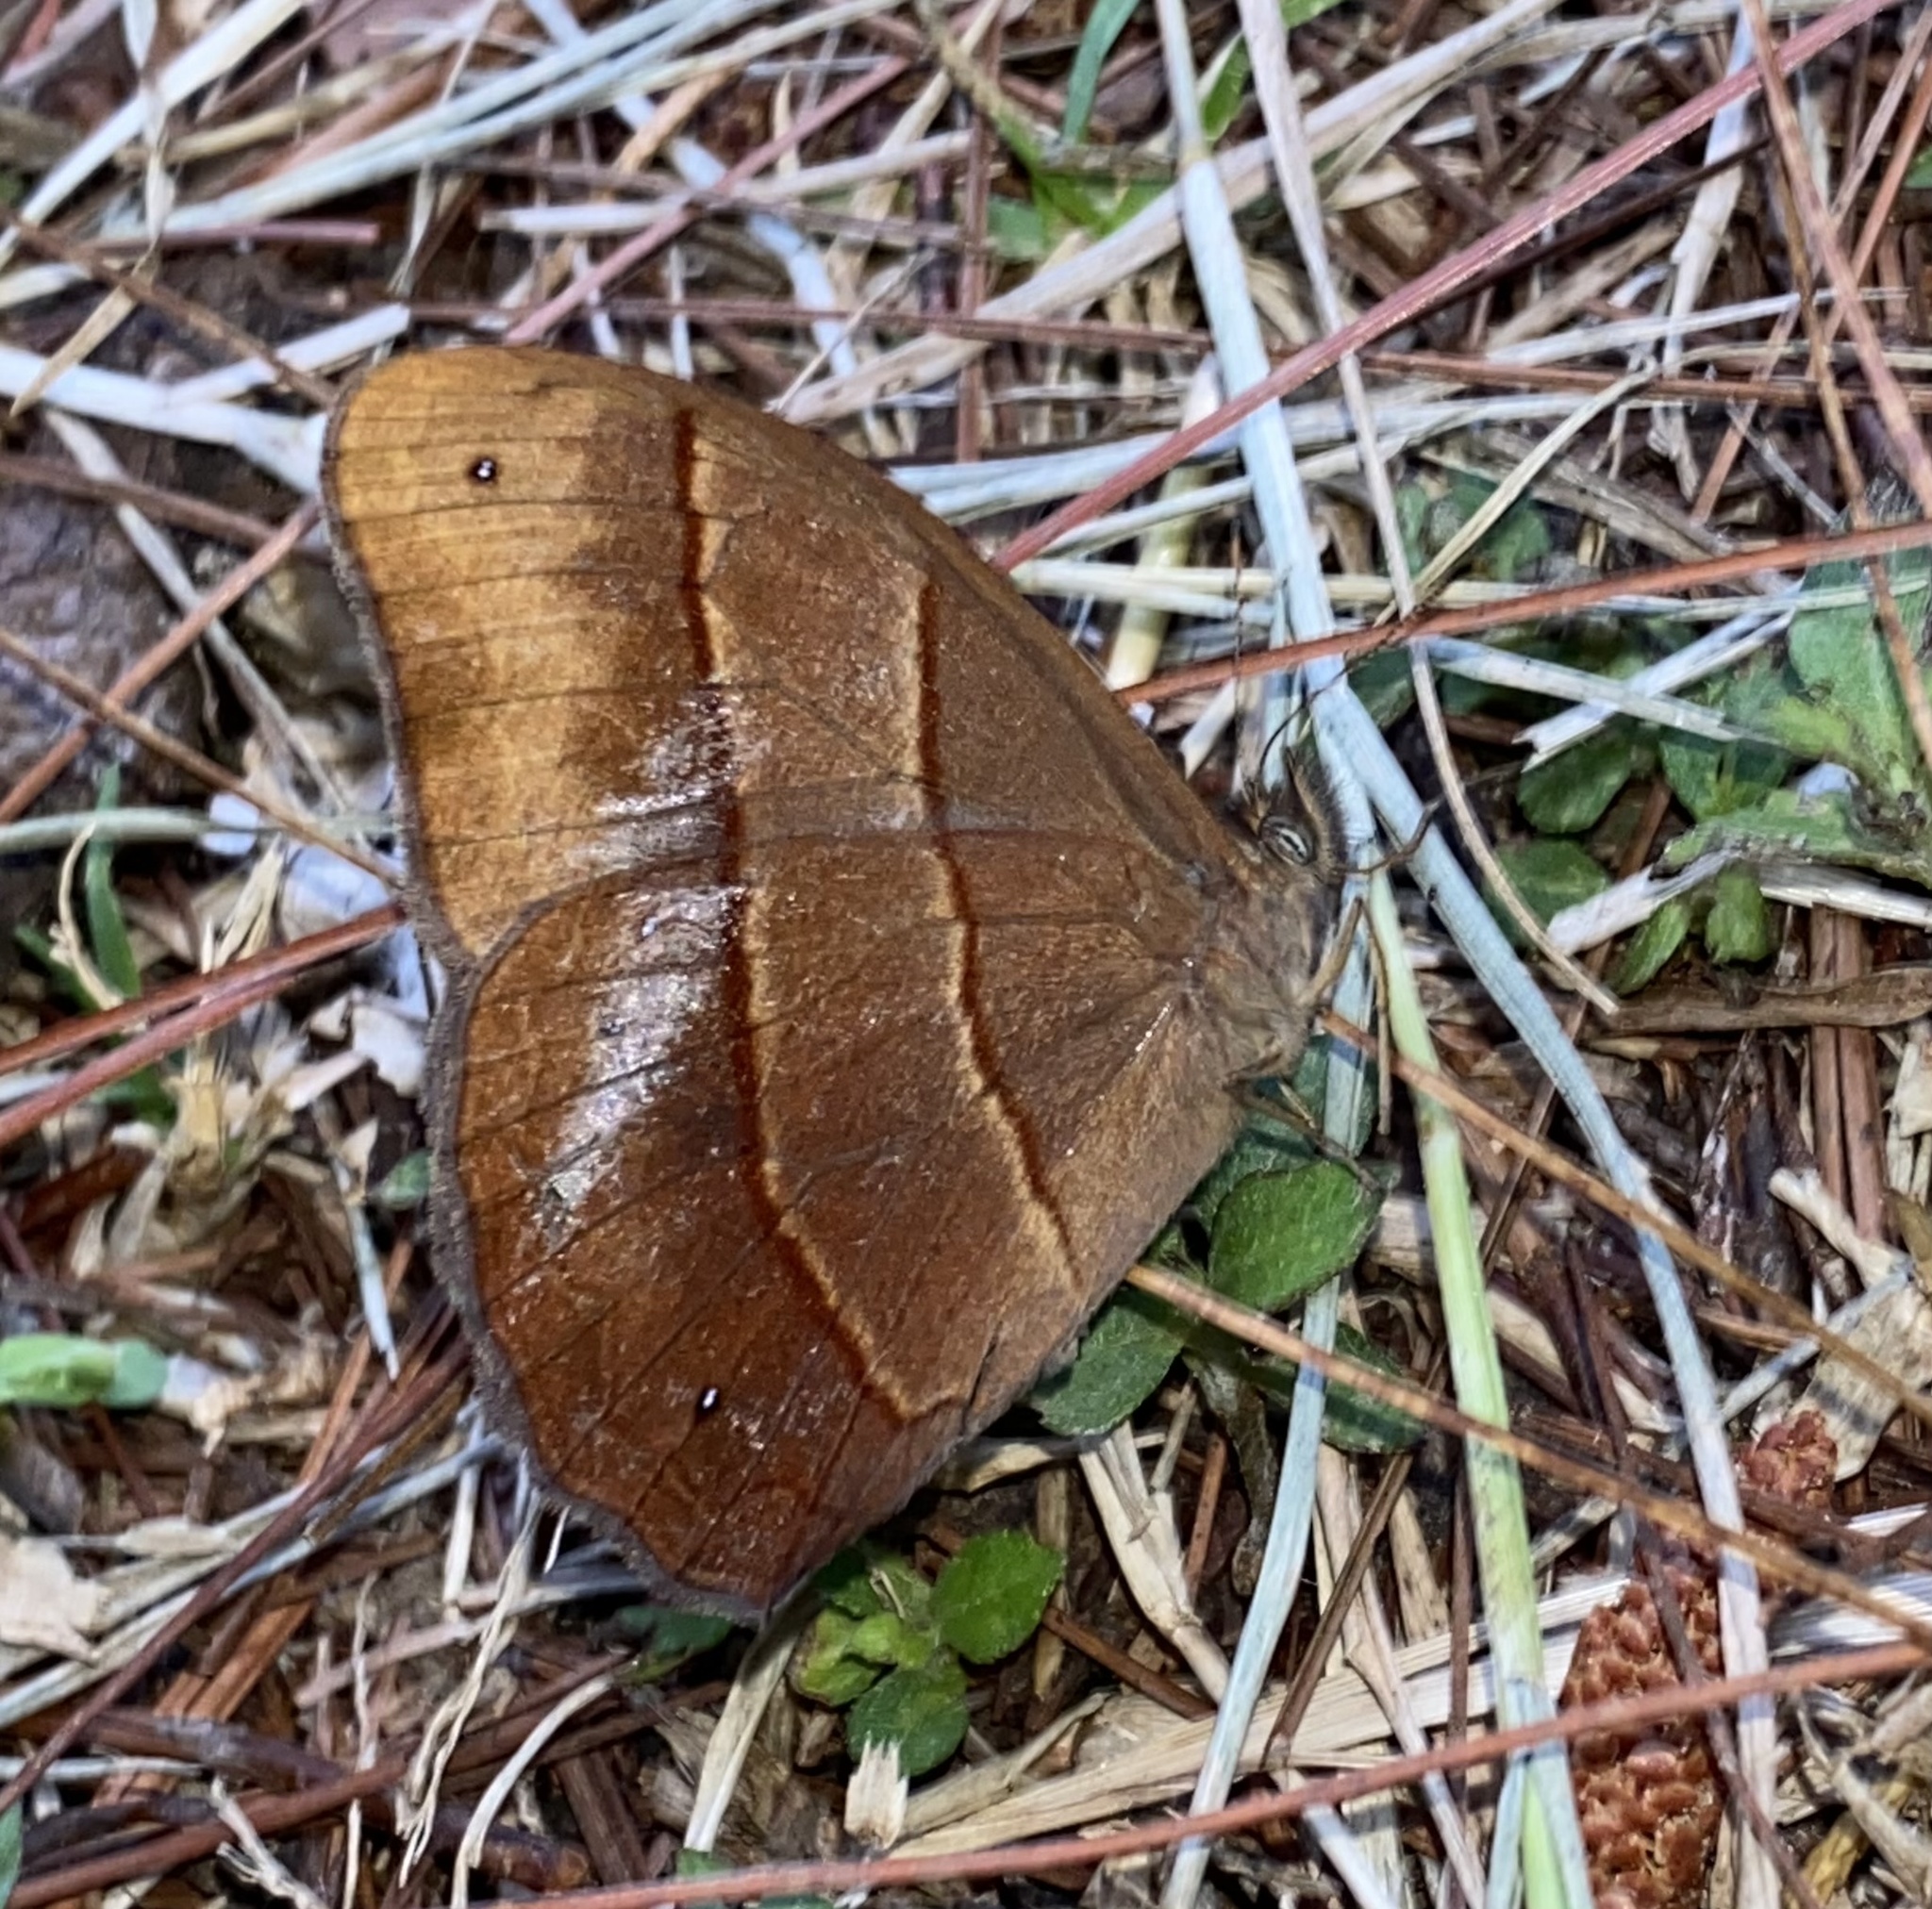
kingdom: Animalia
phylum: Arthropoda
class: Insecta
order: Lepidoptera
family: Nymphalidae
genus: Satyrotaygetis
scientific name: Satyrotaygetis satyrina
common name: Wide-bordered satyr
